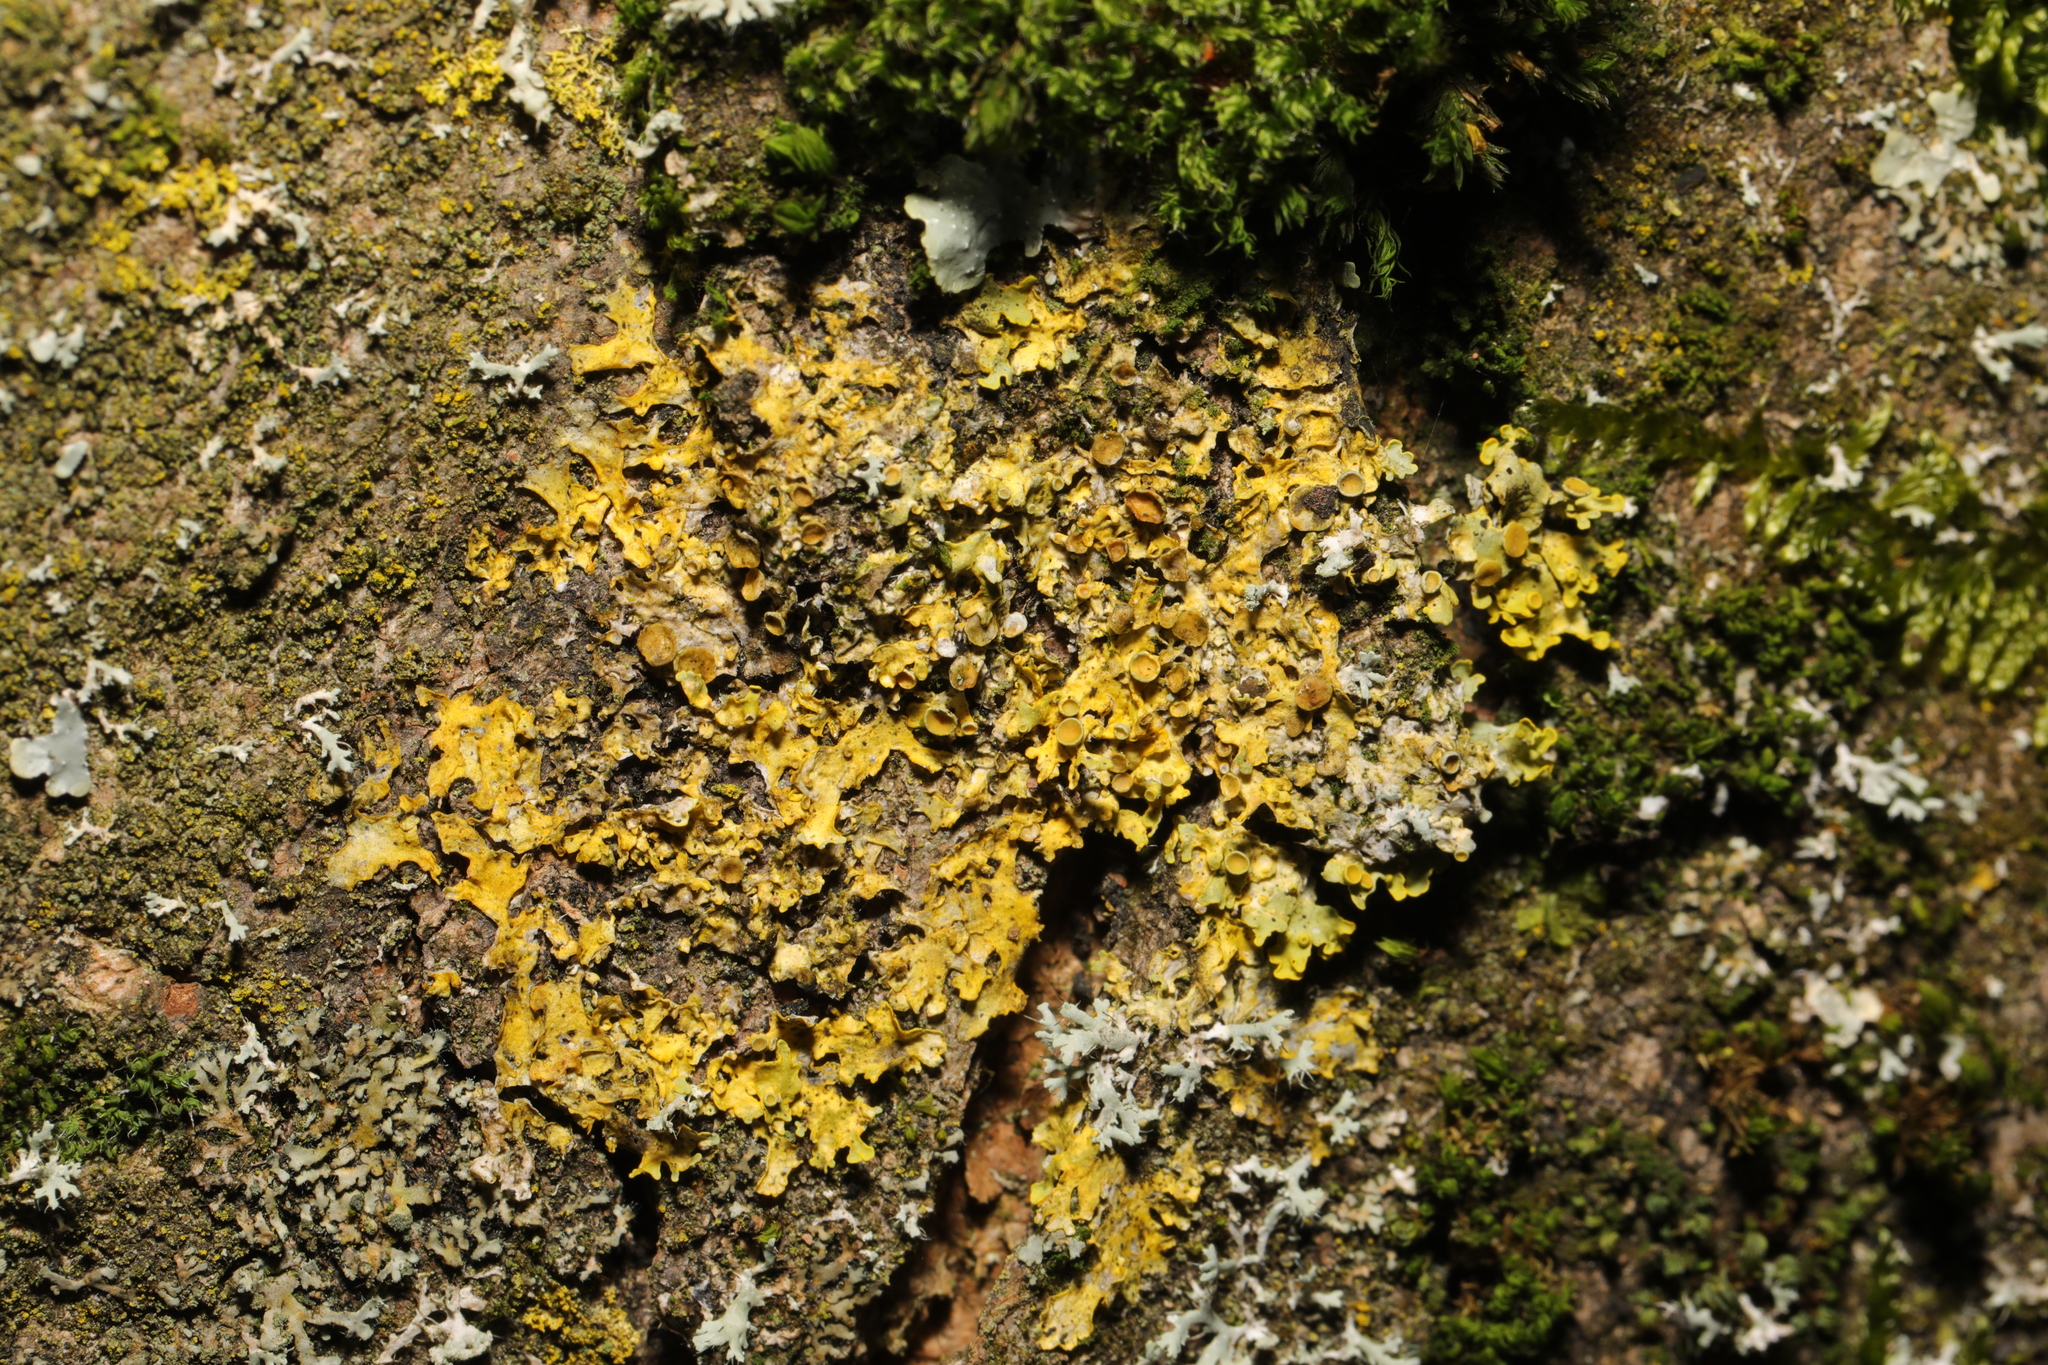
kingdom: Fungi
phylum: Ascomycota
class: Lecanoromycetes
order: Teloschistales
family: Teloschistaceae
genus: Xanthoria
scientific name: Xanthoria parietina
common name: Common orange lichen
